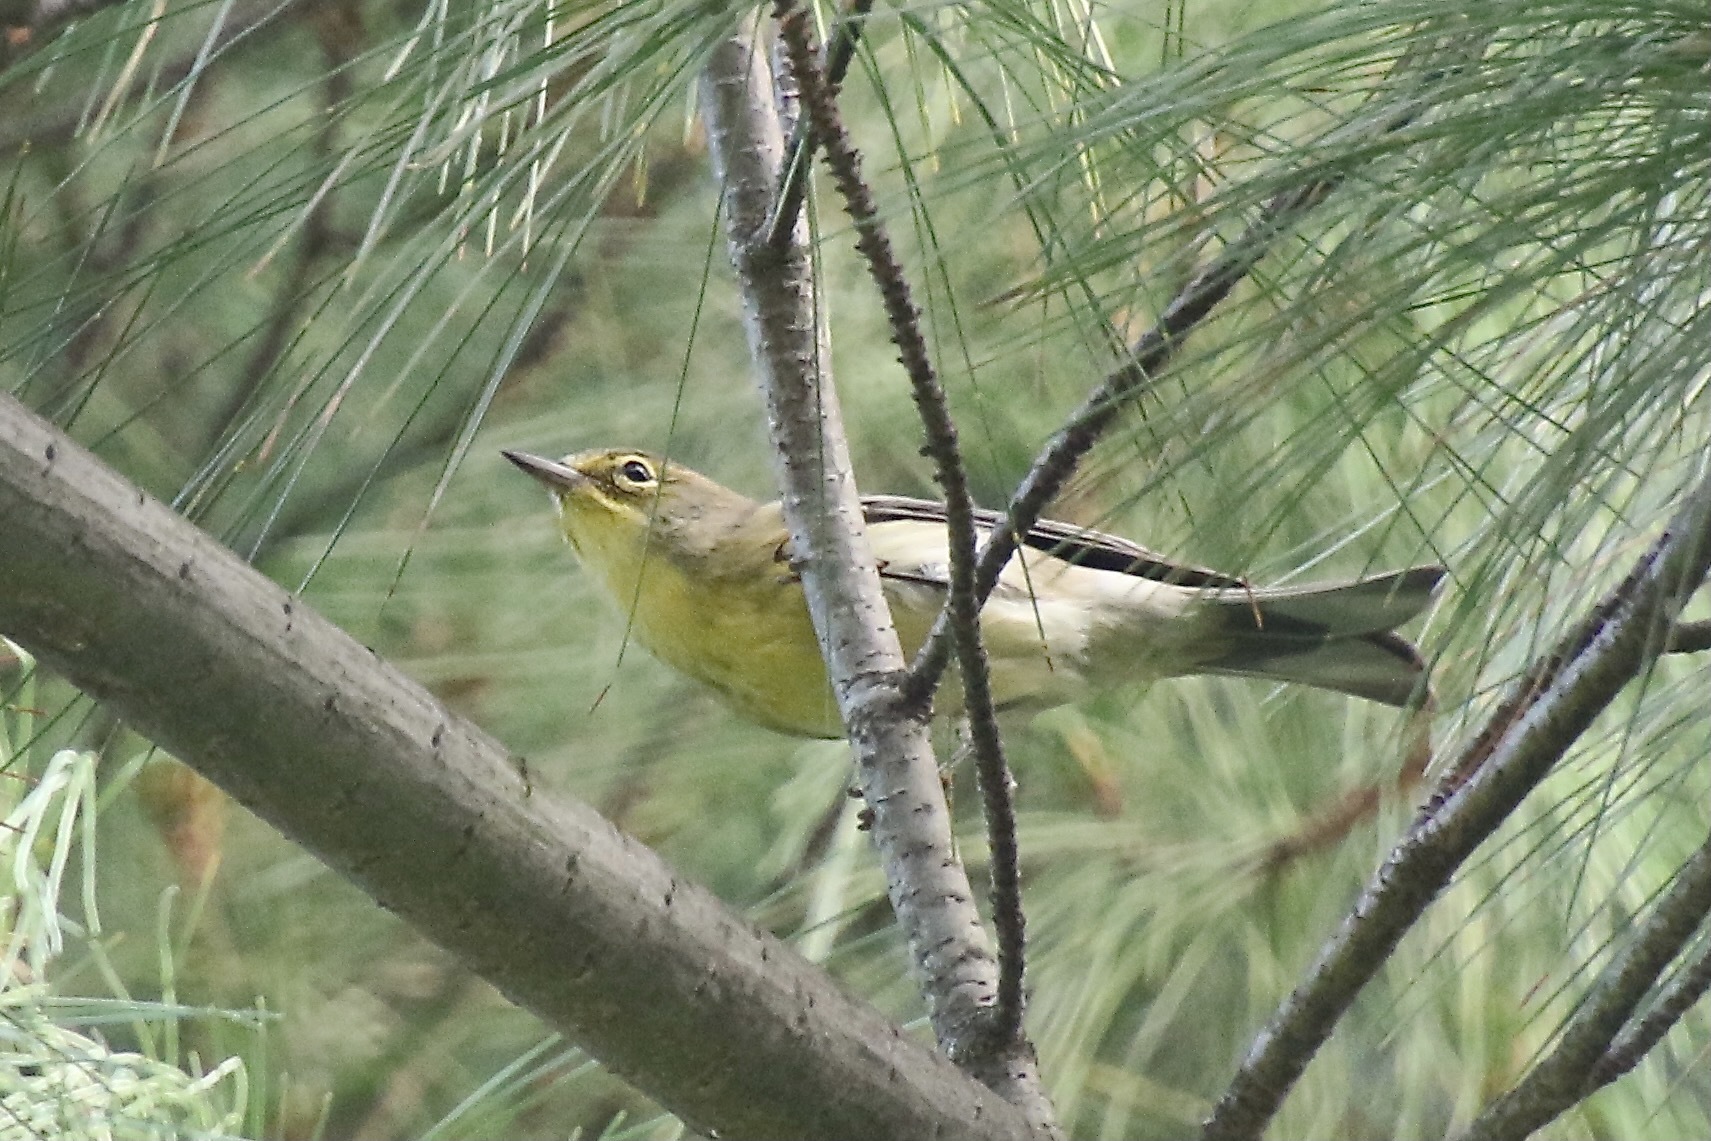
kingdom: Animalia
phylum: Chordata
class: Aves
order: Passeriformes
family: Parulidae
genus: Setophaga
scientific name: Setophaga pinus
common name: Pine warbler
